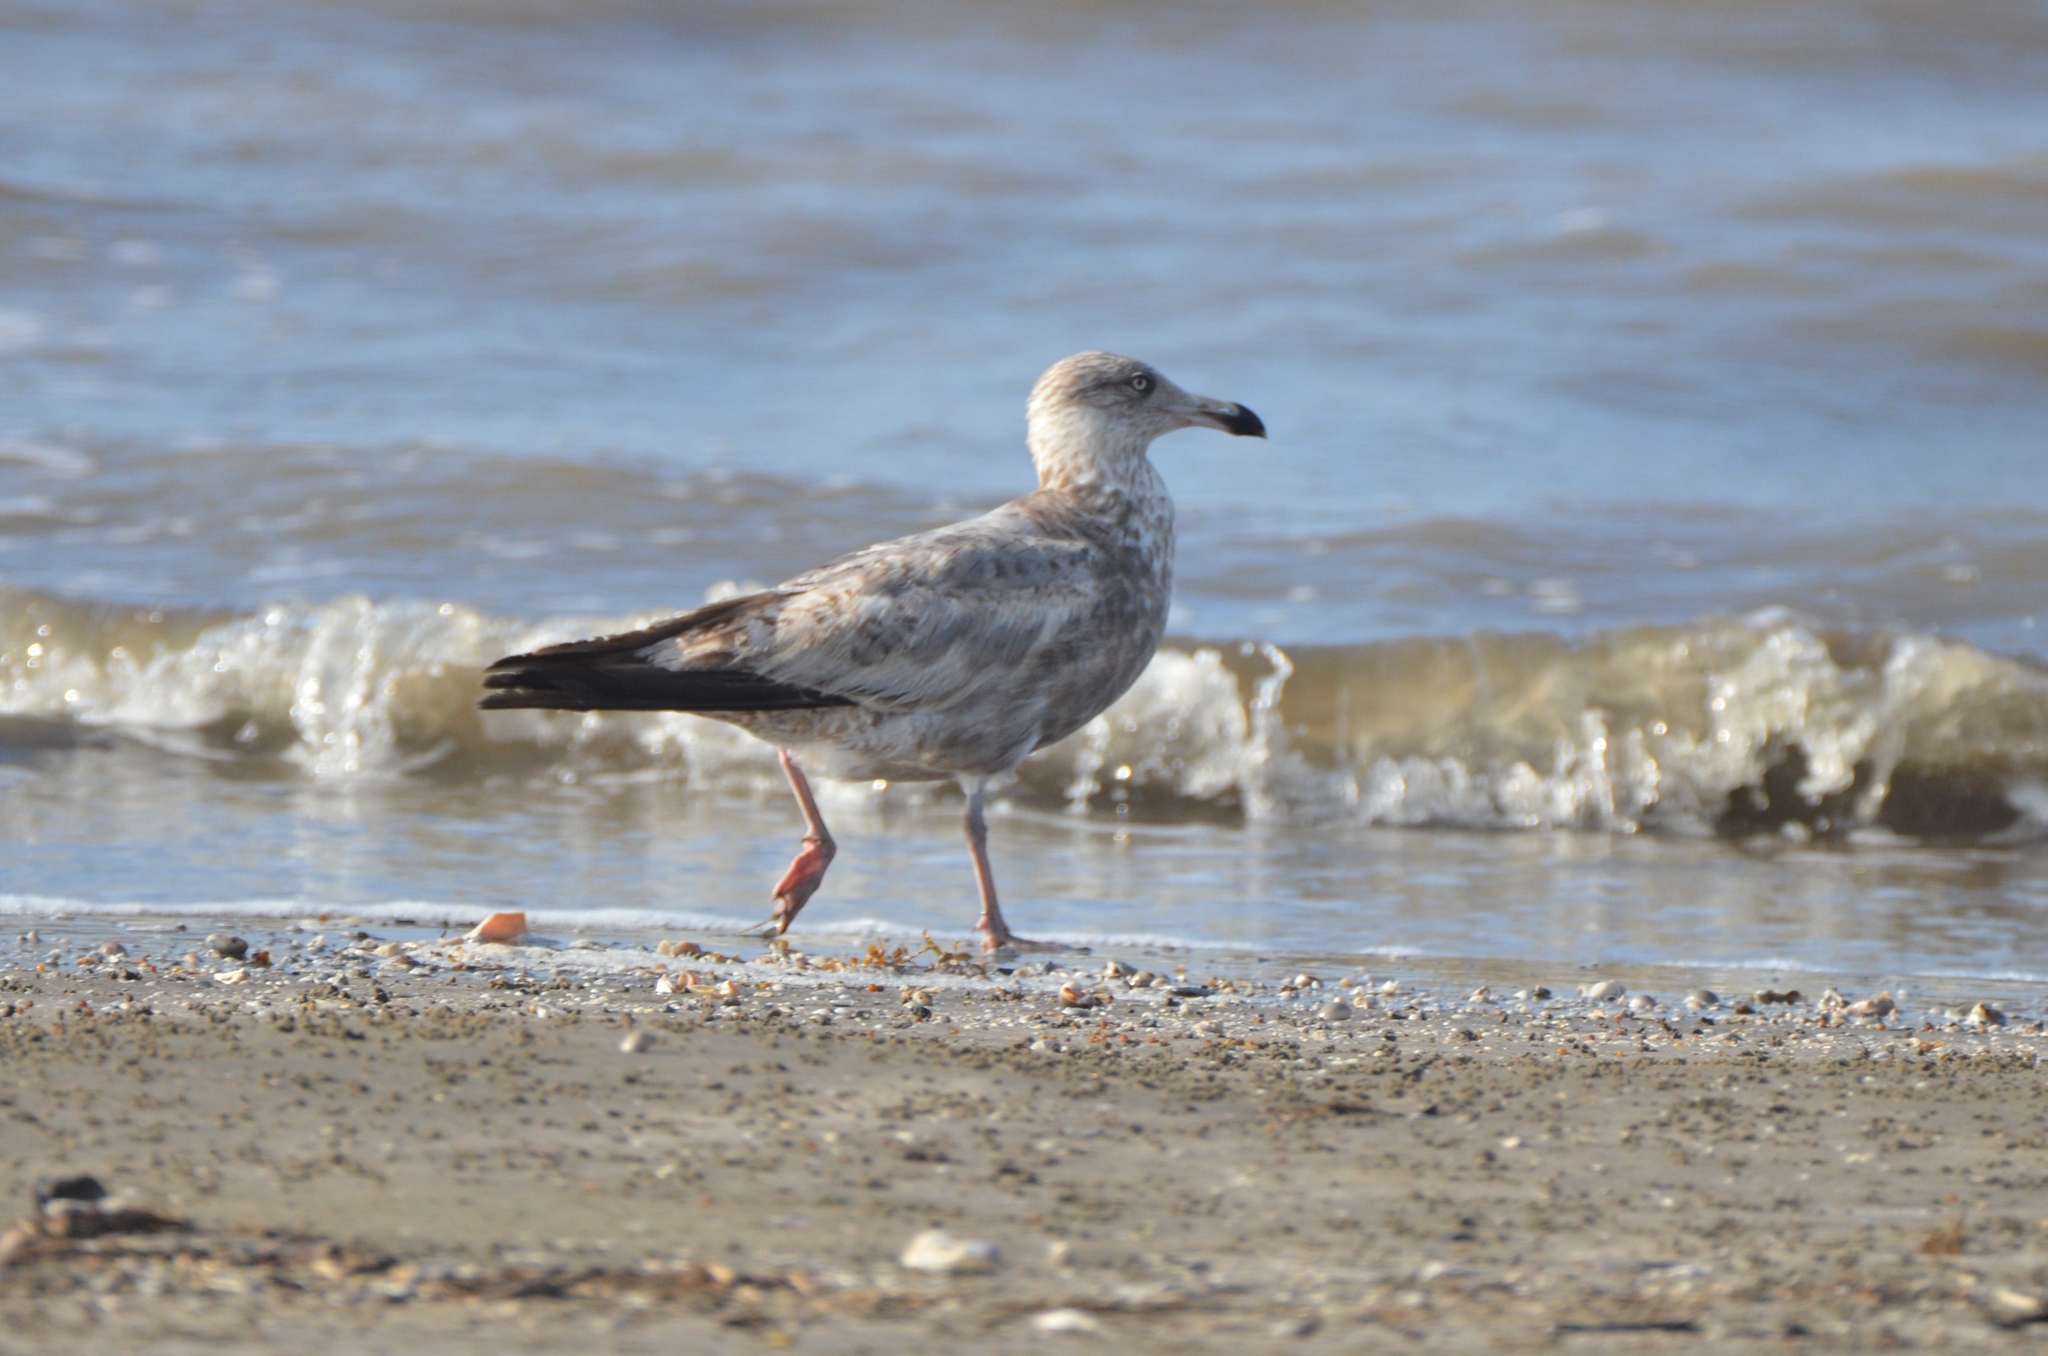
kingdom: Animalia
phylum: Chordata
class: Aves
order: Charadriiformes
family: Laridae
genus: Larus
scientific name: Larus argentatus
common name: Herring gull
